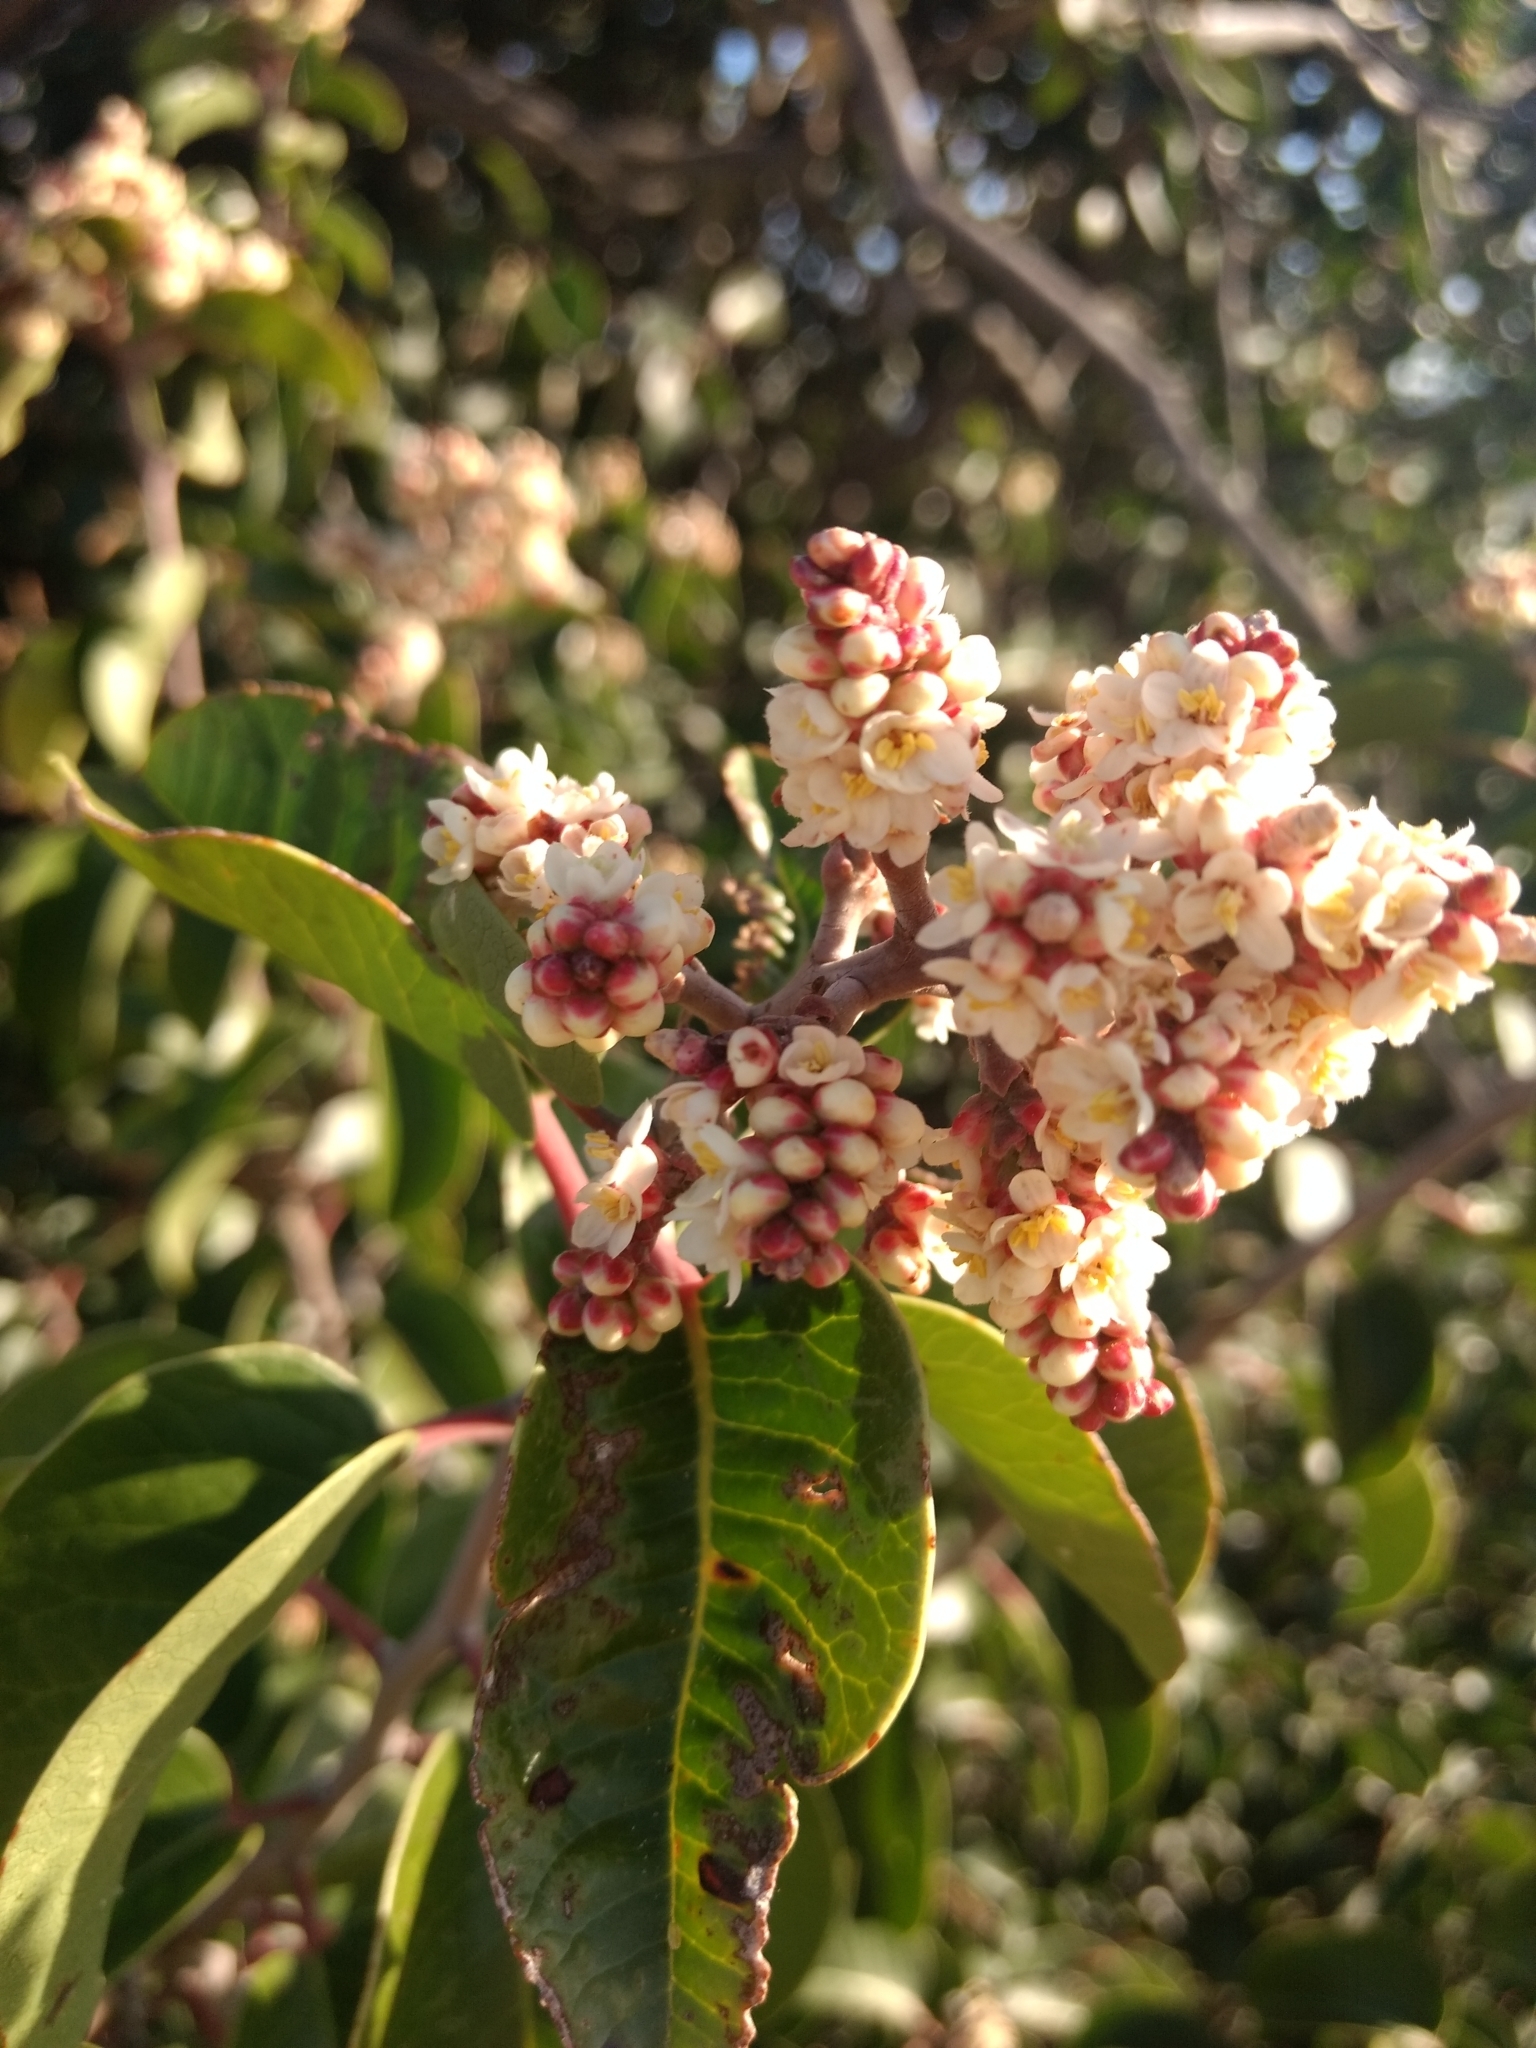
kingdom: Plantae
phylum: Tracheophyta
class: Magnoliopsida
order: Sapindales
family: Anacardiaceae
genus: Rhus
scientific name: Rhus ovata
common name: Sugar sumac
